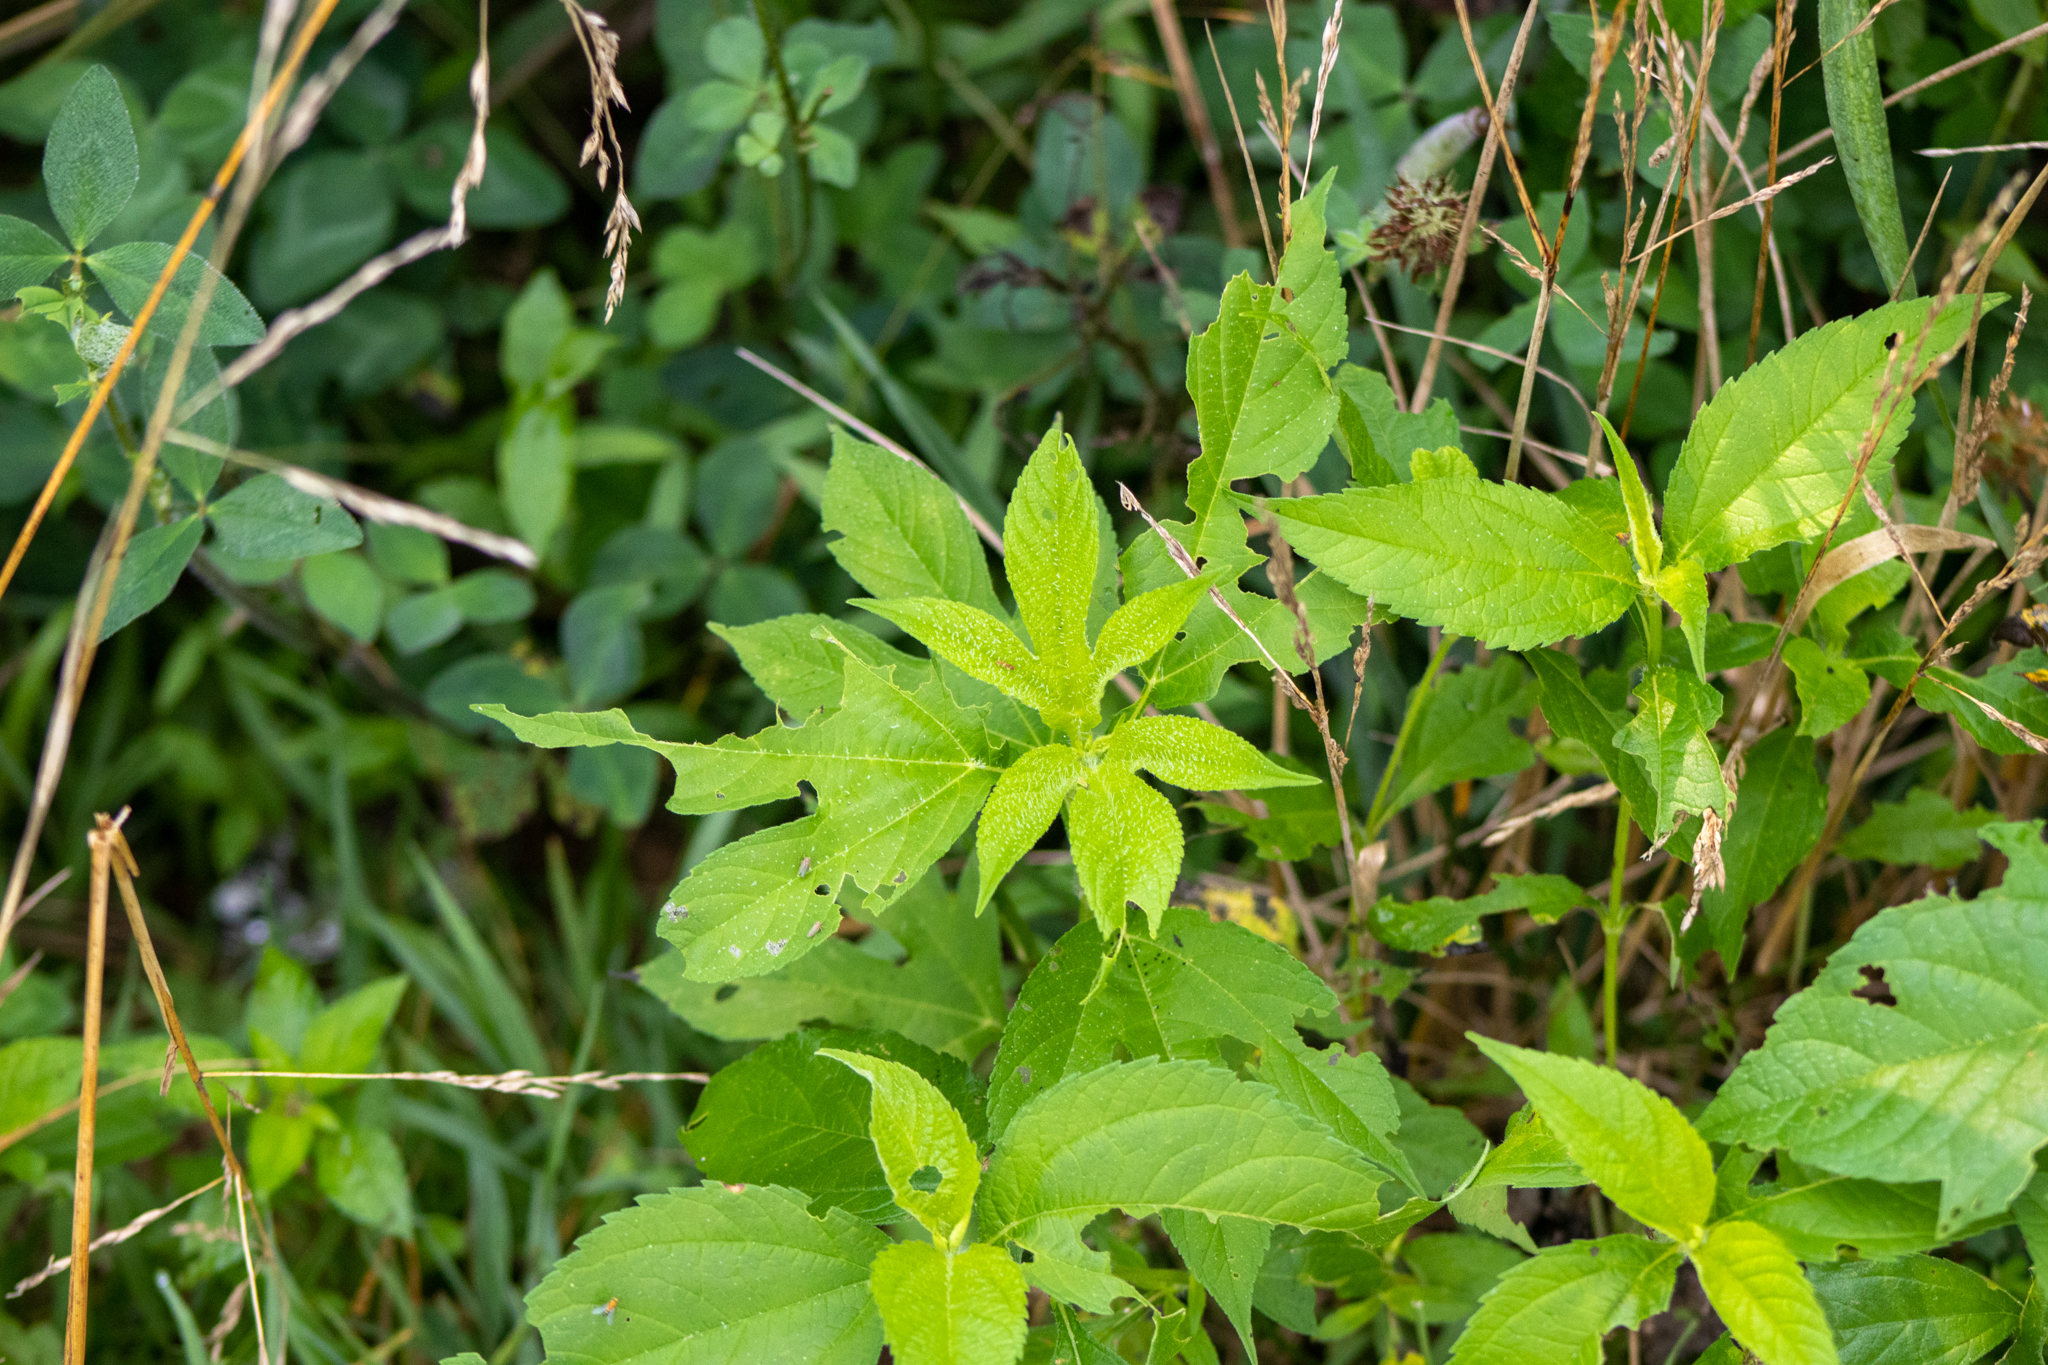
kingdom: Plantae
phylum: Tracheophyta
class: Magnoliopsida
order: Asterales
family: Asteraceae
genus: Ambrosia
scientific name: Ambrosia trifida
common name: Giant ragweed
